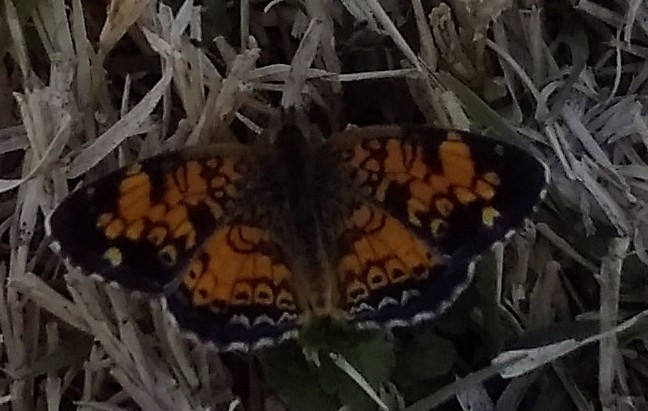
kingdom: Animalia
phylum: Arthropoda
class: Insecta
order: Lepidoptera
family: Nymphalidae
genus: Phyciodes
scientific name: Phyciodes tharos
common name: Pearl crescent
